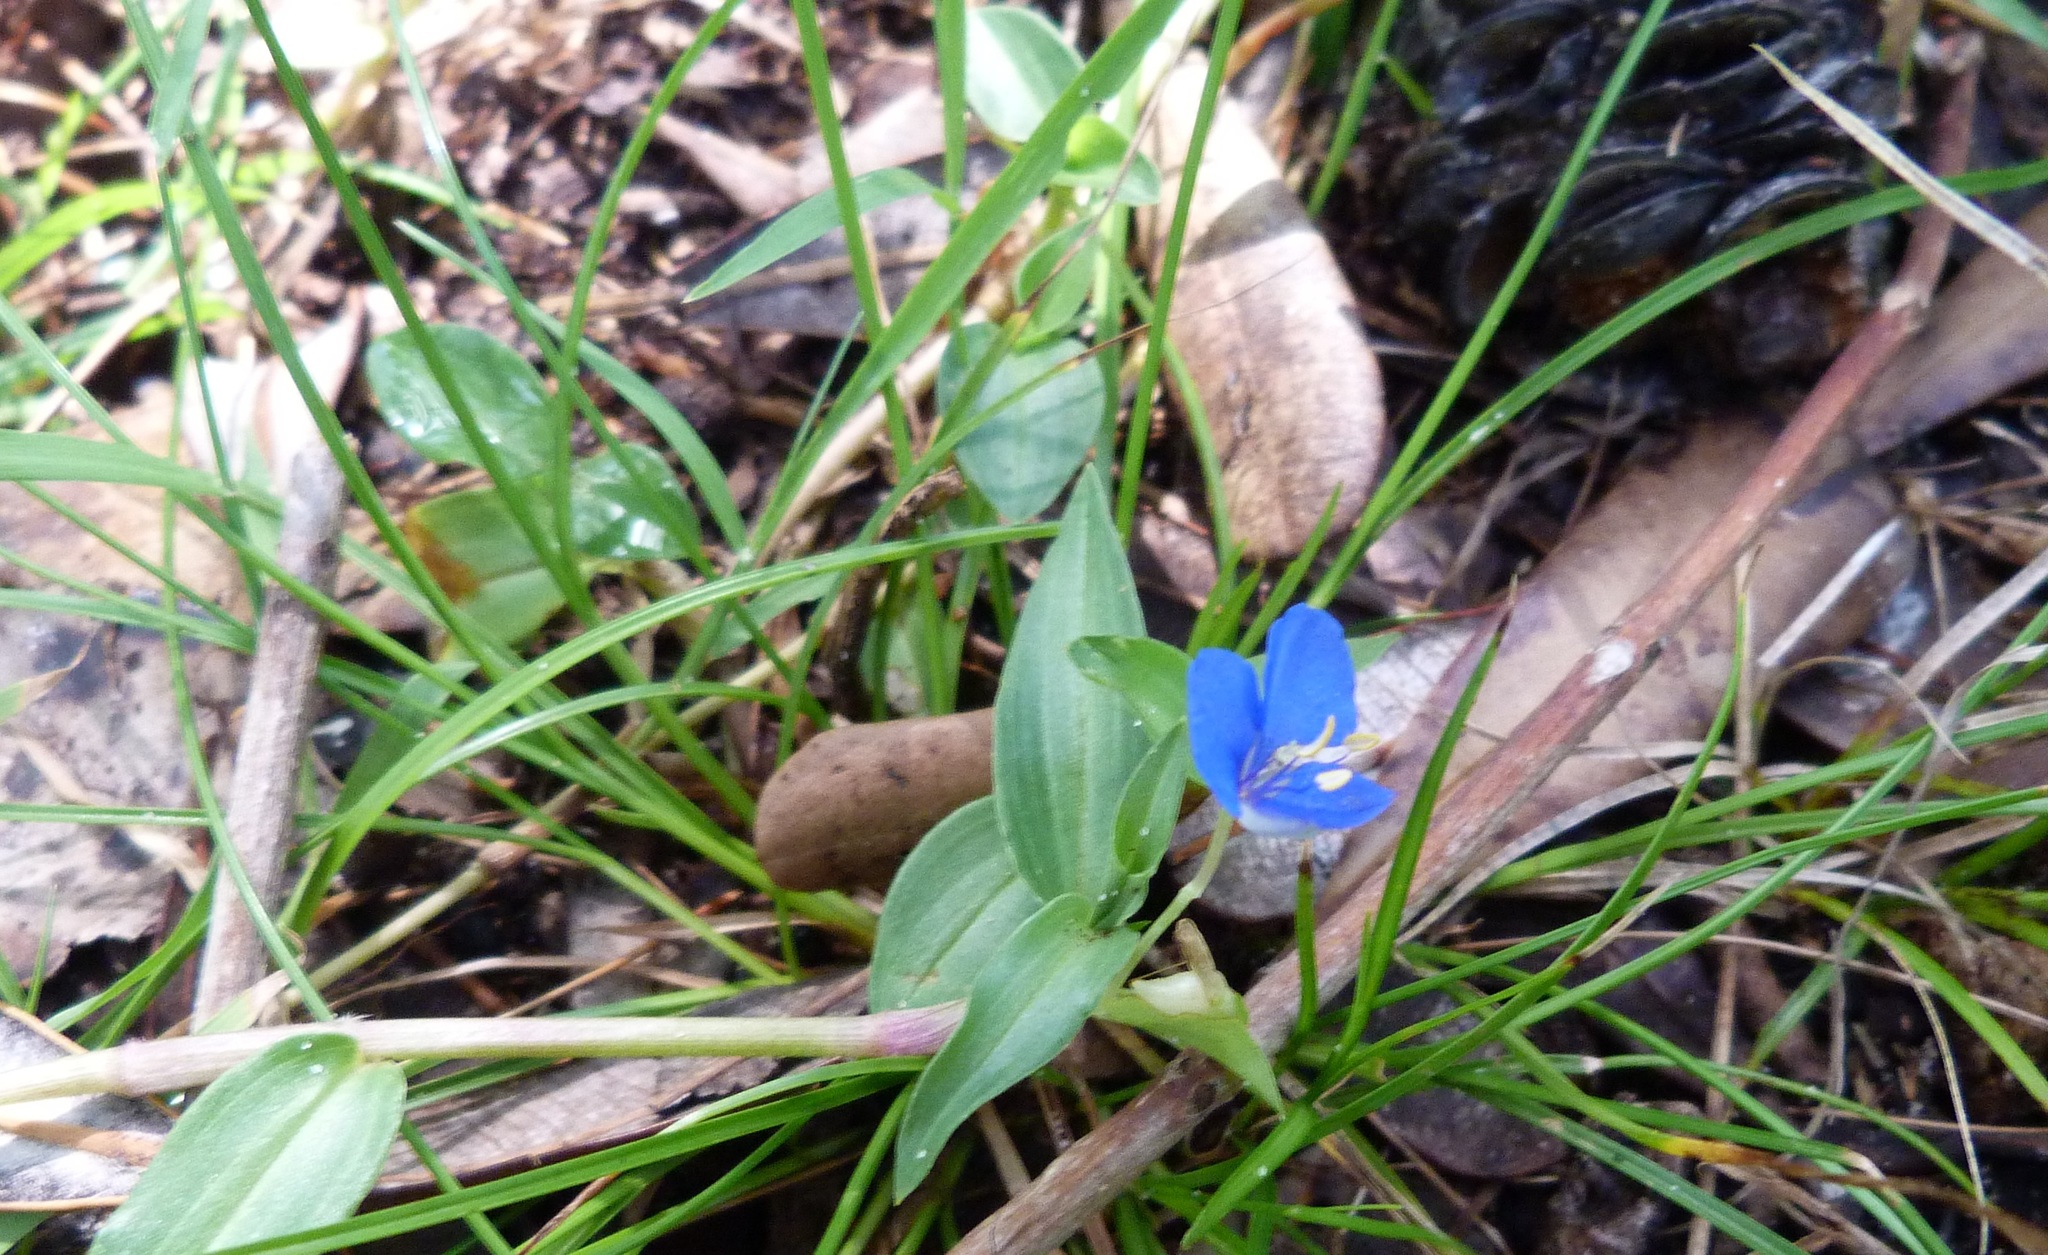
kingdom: Plantae
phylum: Tracheophyta
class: Liliopsida
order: Commelinales
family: Commelinaceae
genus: Commelina
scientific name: Commelina cyanea
